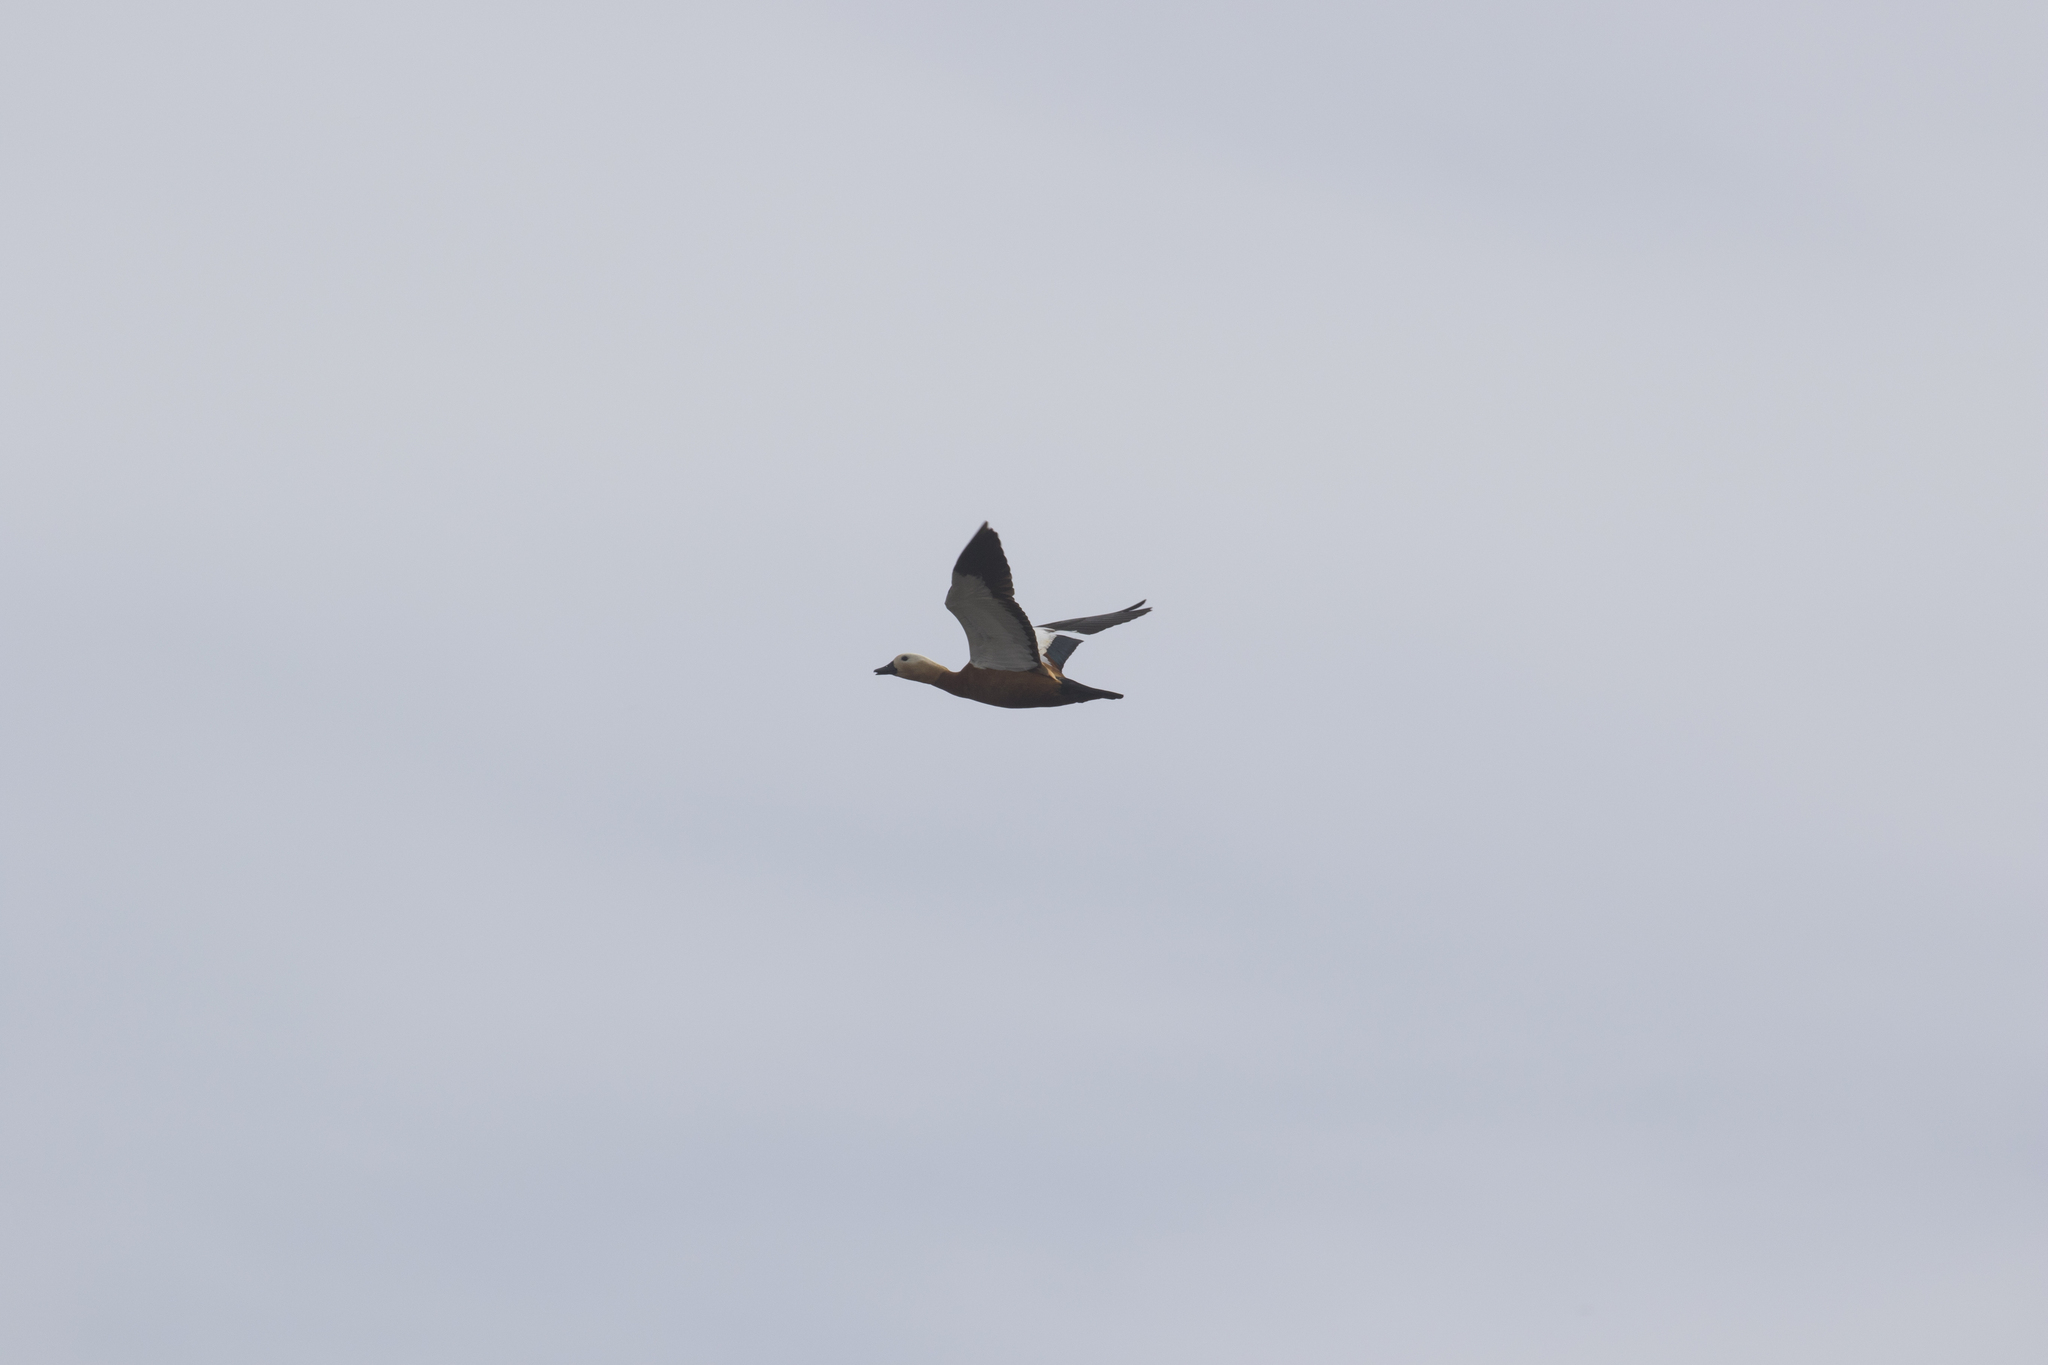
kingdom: Animalia
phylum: Chordata
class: Aves
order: Anseriformes
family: Anatidae
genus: Tadorna
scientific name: Tadorna ferruginea
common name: Ruddy shelduck
